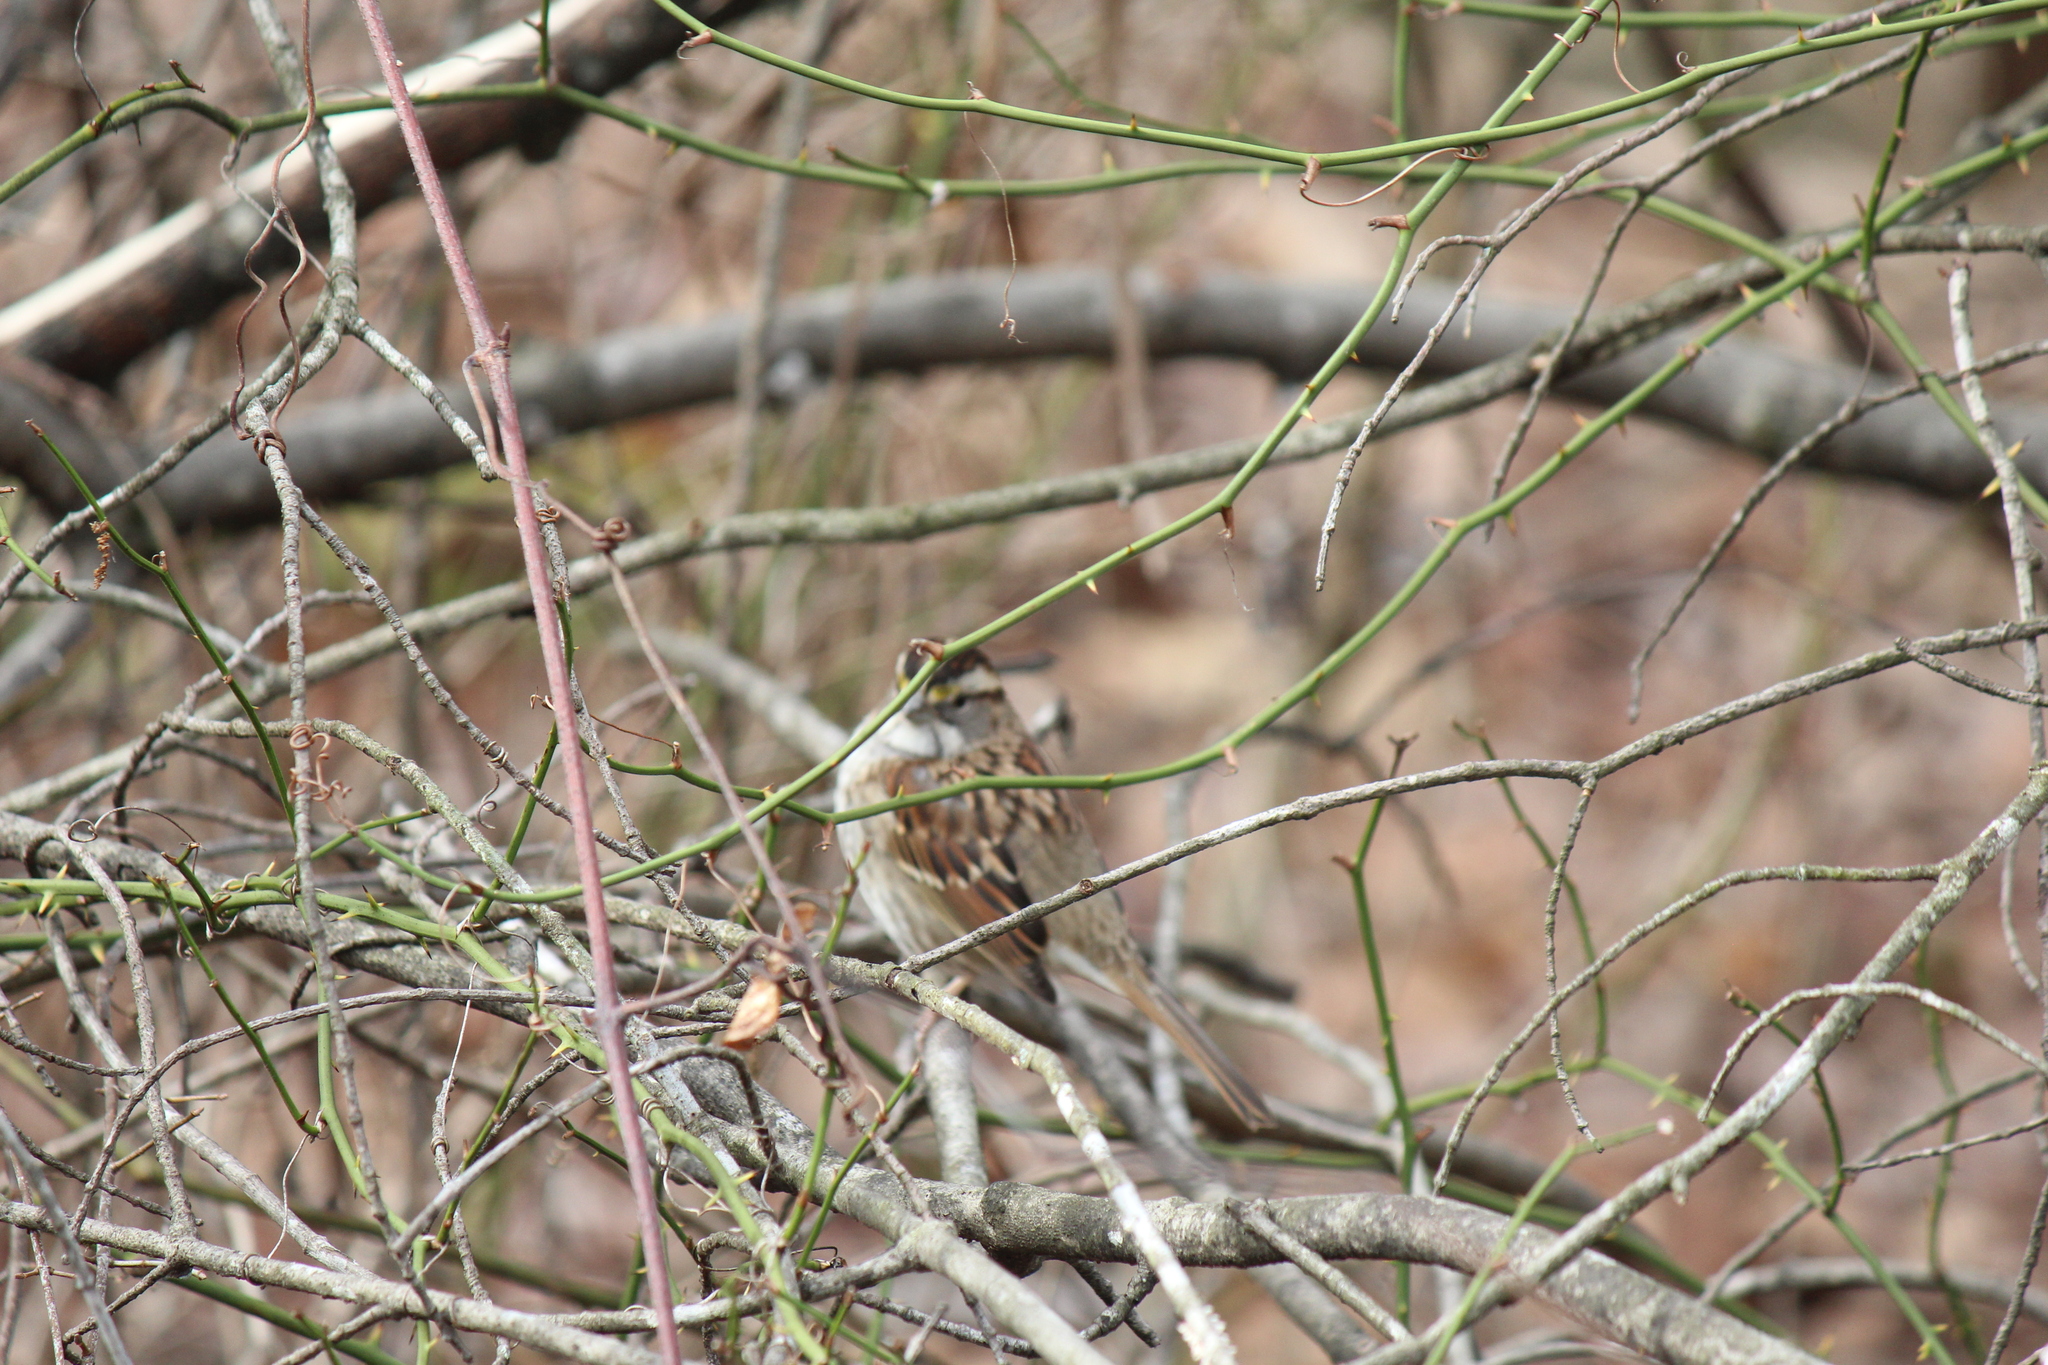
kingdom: Animalia
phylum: Chordata
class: Aves
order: Passeriformes
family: Passerellidae
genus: Zonotrichia
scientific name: Zonotrichia albicollis
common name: White-throated sparrow
